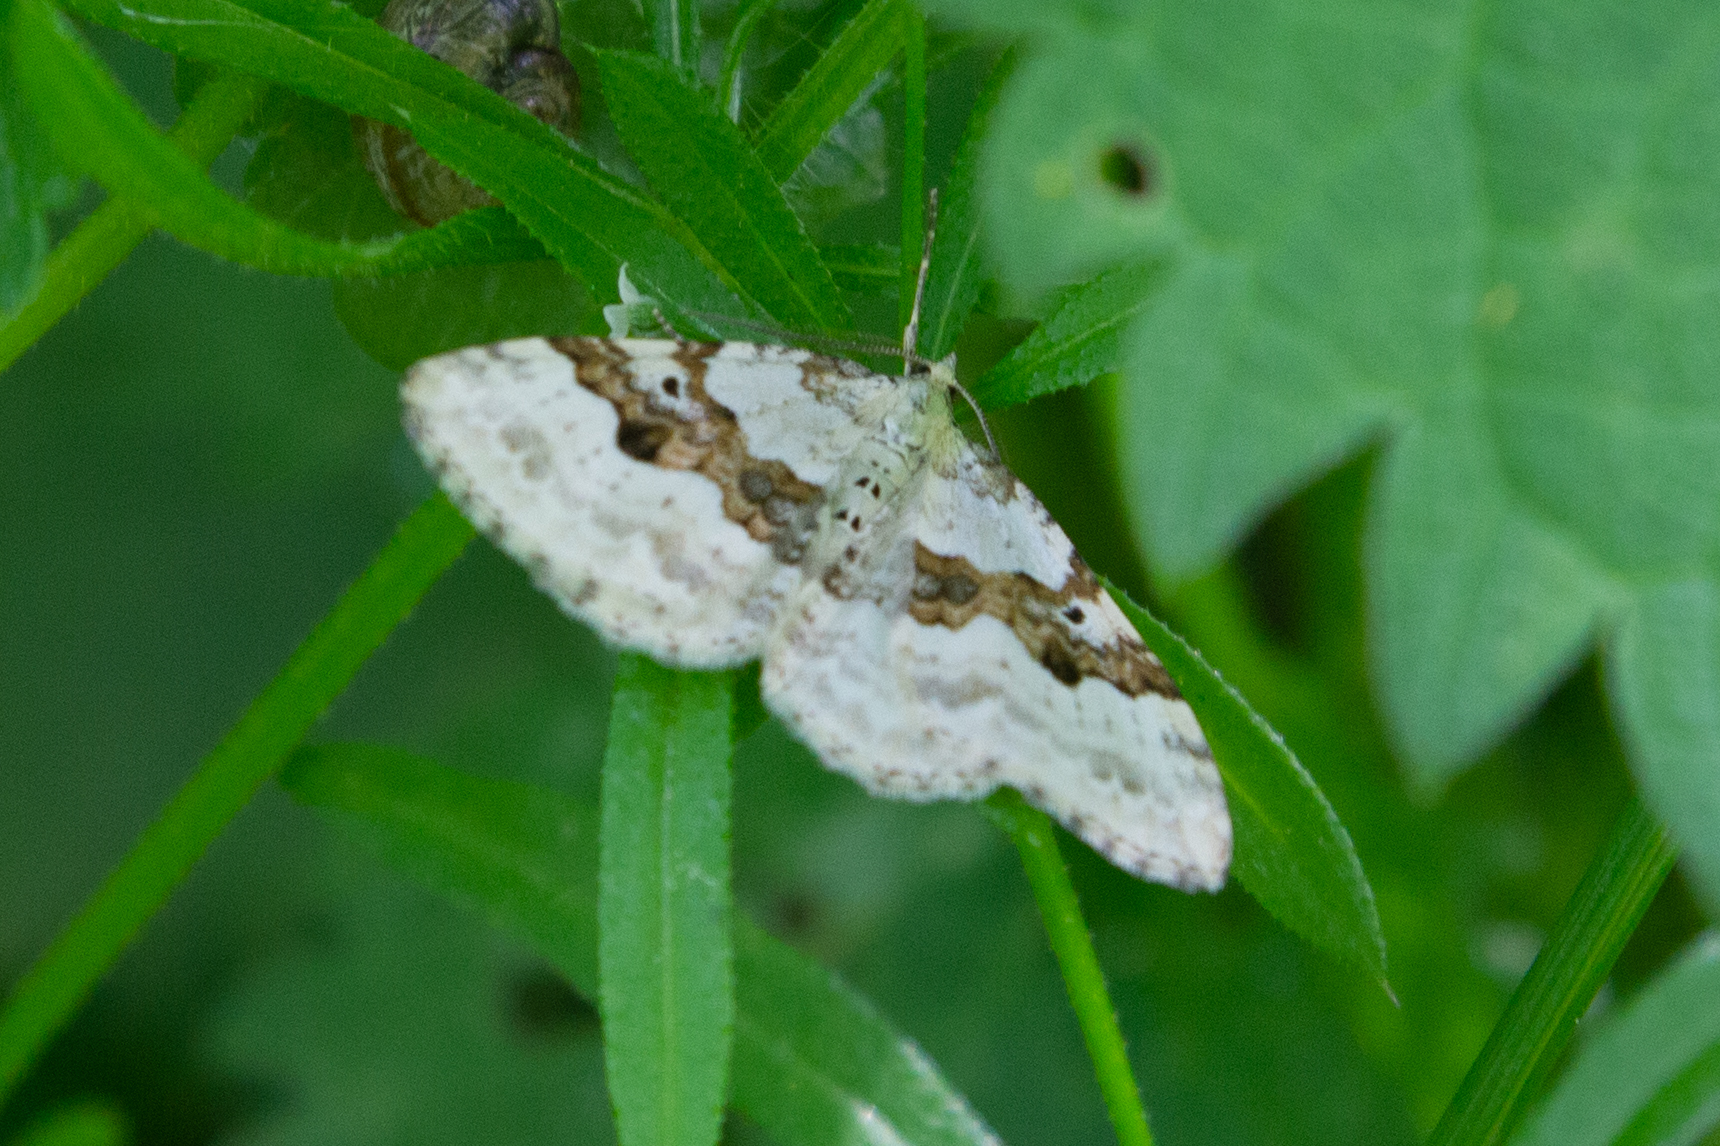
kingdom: Animalia
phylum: Arthropoda
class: Insecta
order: Lepidoptera
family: Geometridae
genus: Xanthorhoe
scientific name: Xanthorhoe montanata
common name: Silver-ground carpet
